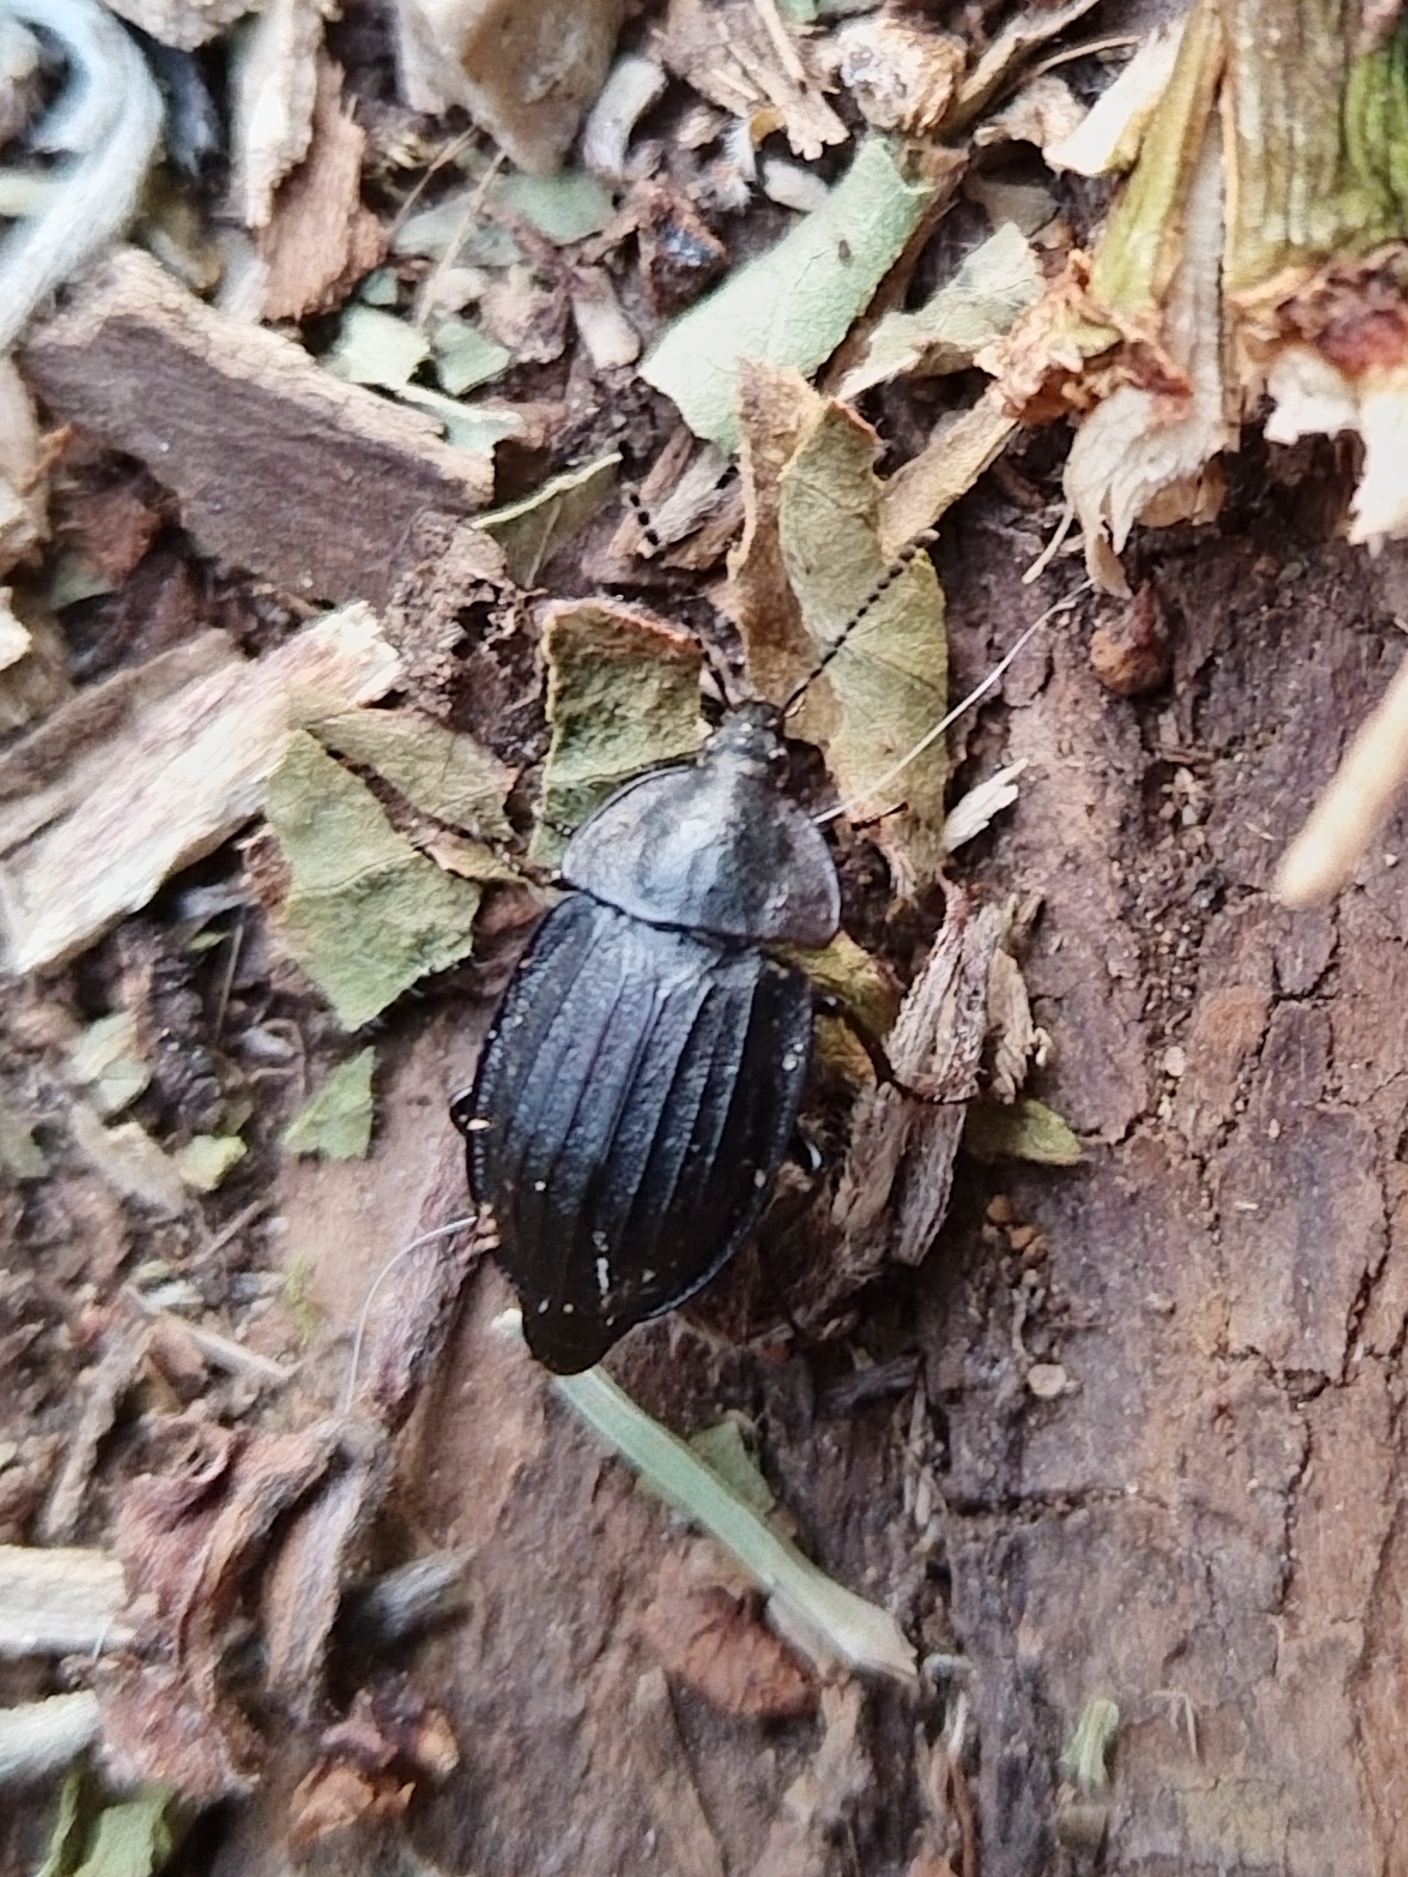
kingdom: Animalia
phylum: Arthropoda
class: Insecta
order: Coleoptera
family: Staphylinidae
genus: Silpha
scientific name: Silpha atrata
